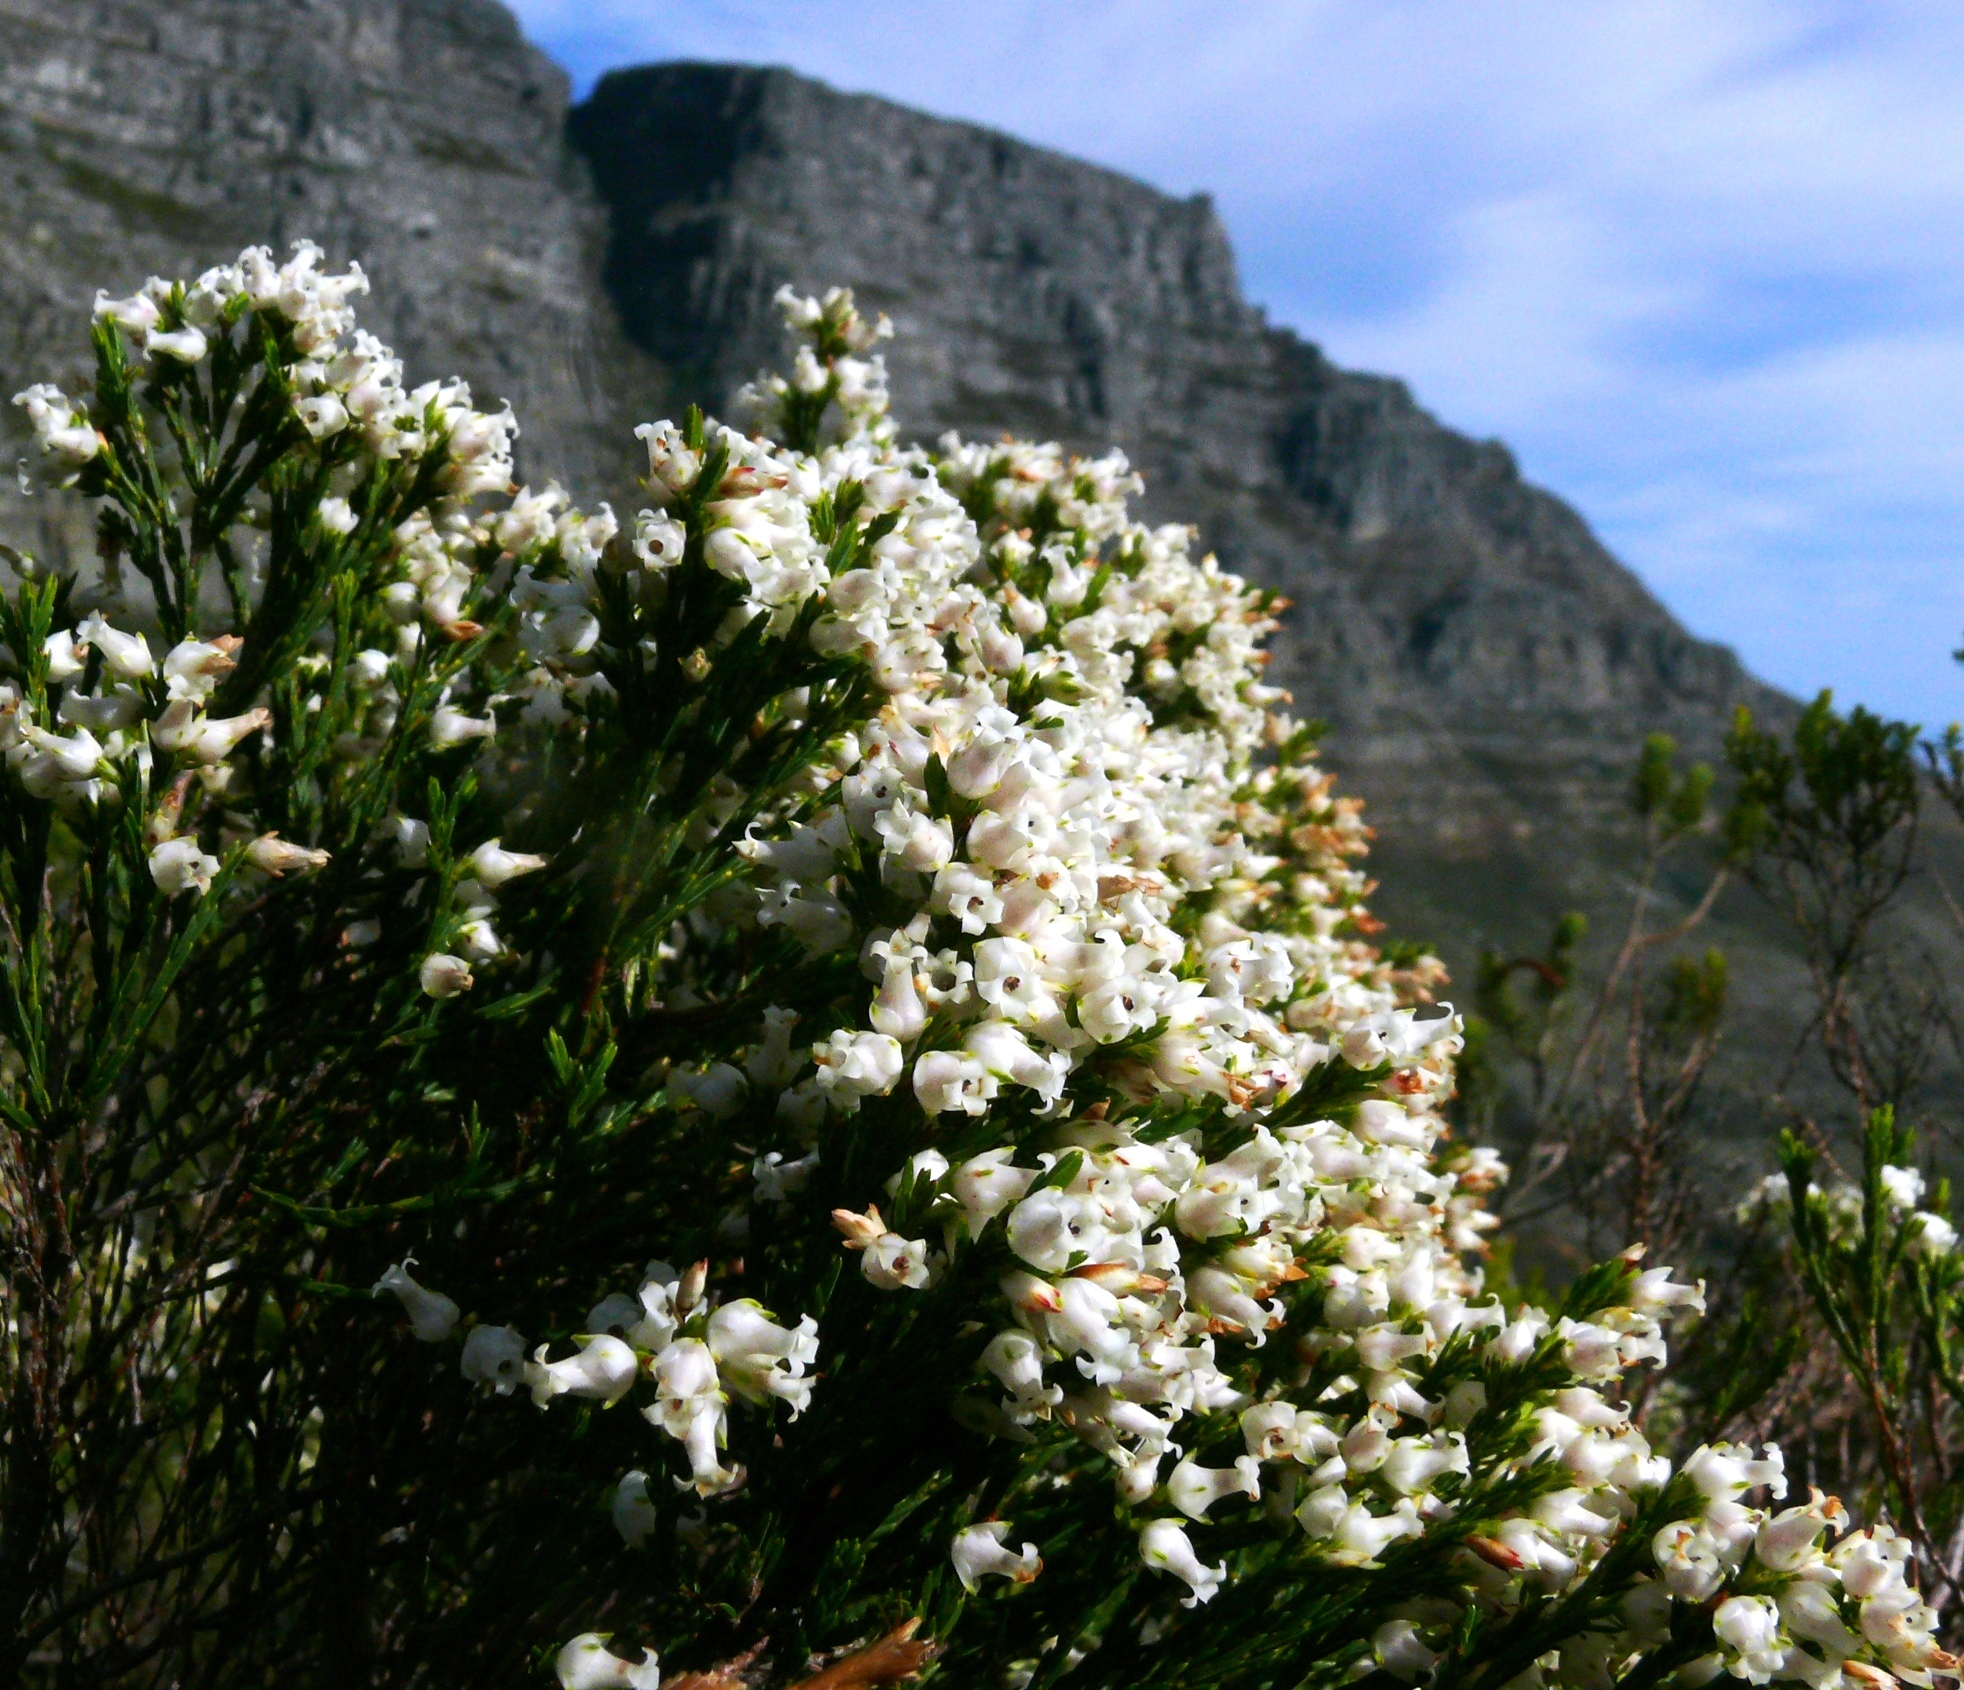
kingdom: Plantae
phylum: Tracheophyta
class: Magnoliopsida
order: Ericales
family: Ericaceae
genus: Erica
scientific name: Erica lutea
